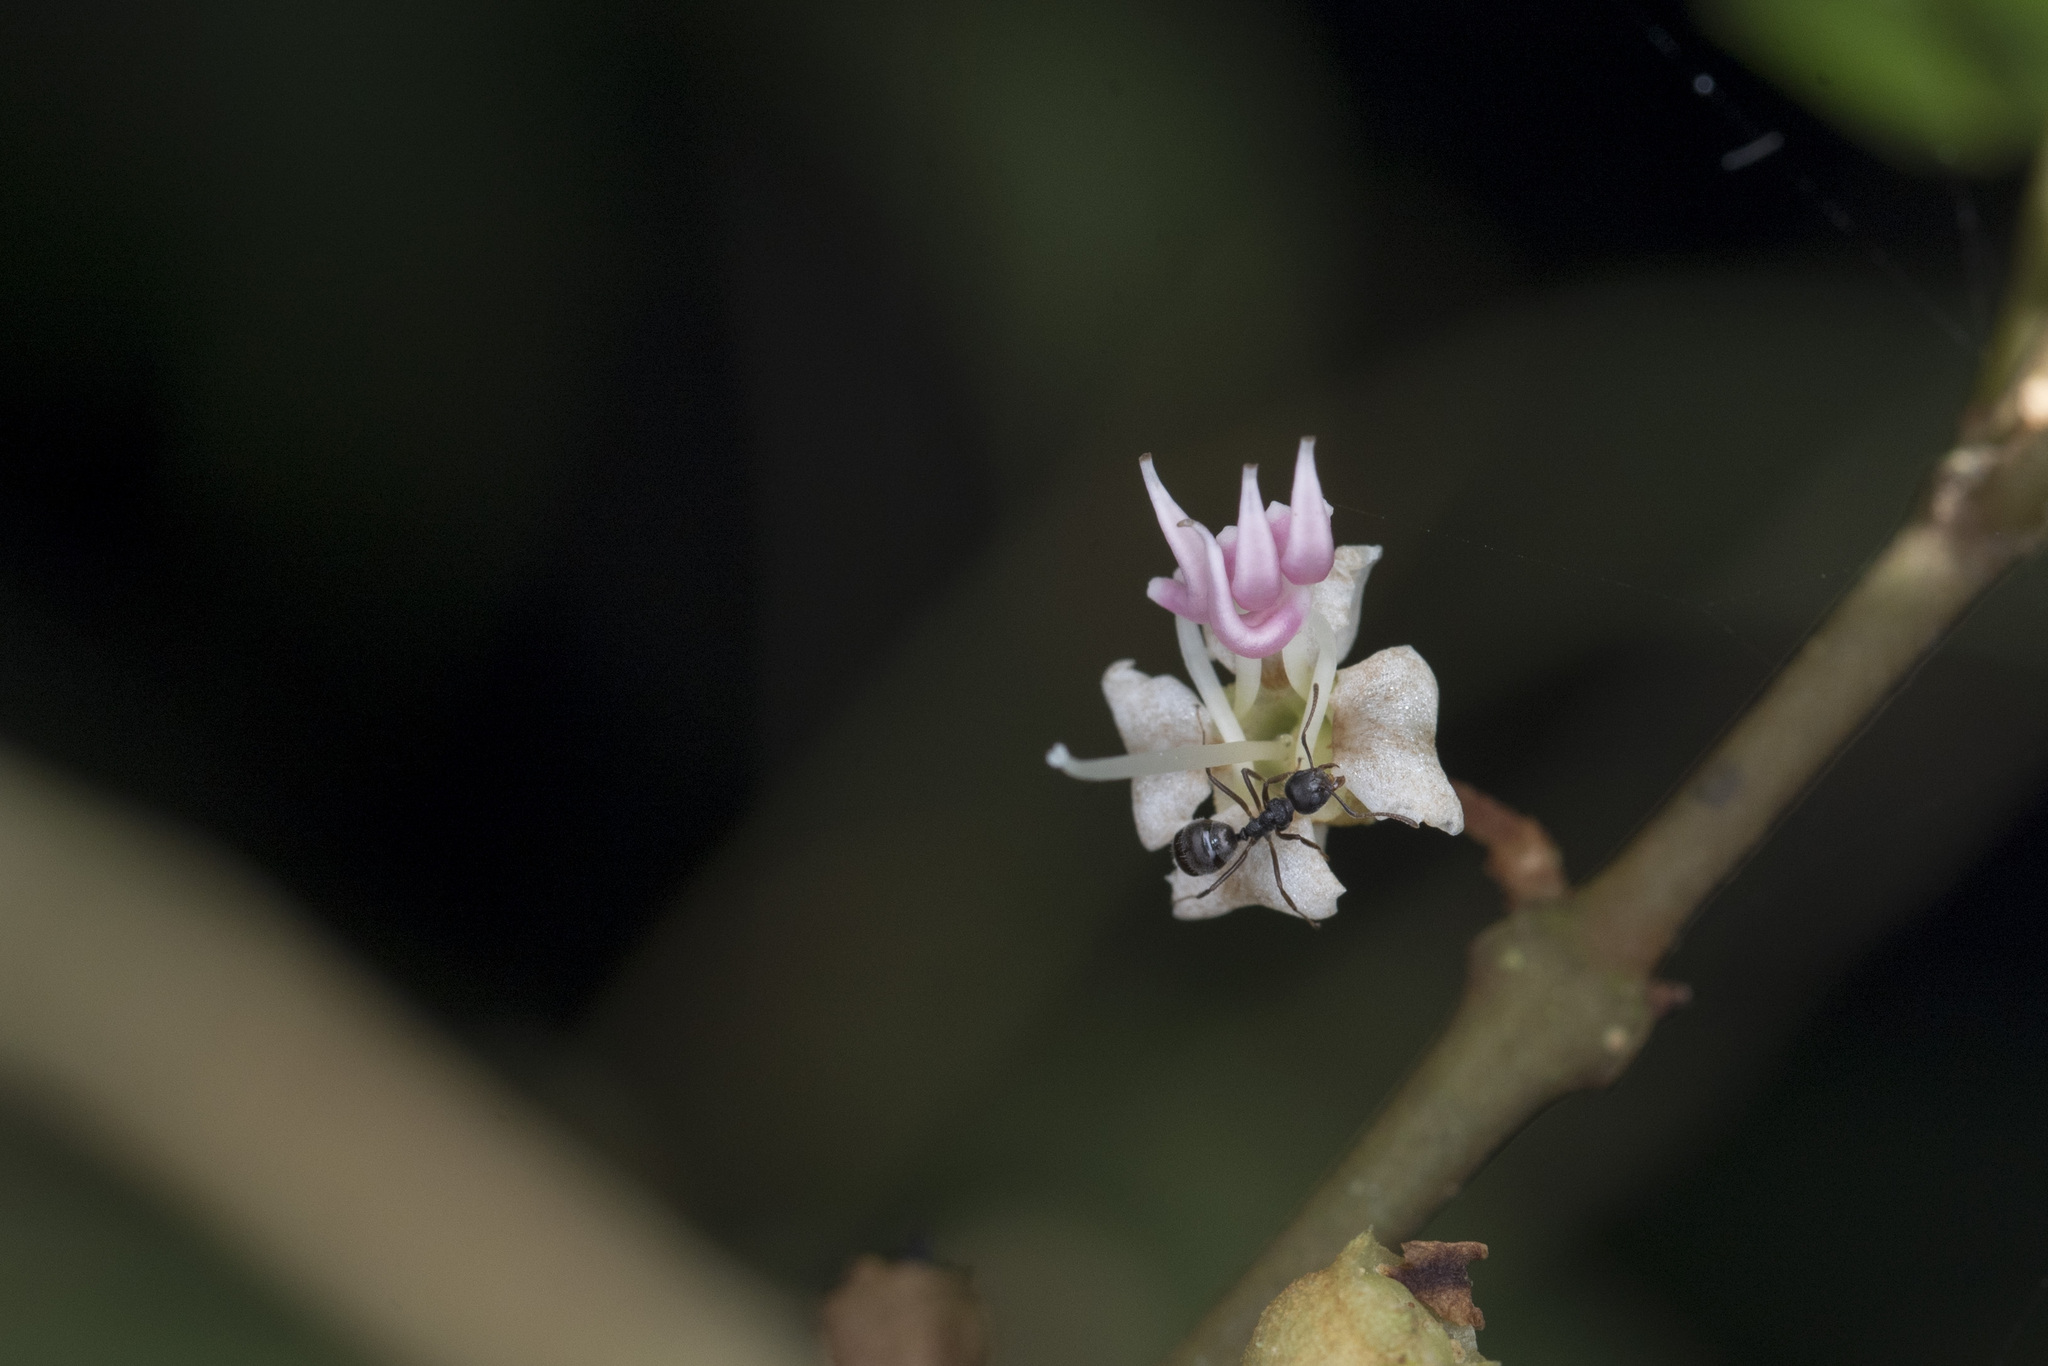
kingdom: Plantae
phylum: Tracheophyta
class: Magnoliopsida
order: Myrtales
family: Melastomataceae
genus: Blastus
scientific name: Blastus cochinchinensis
